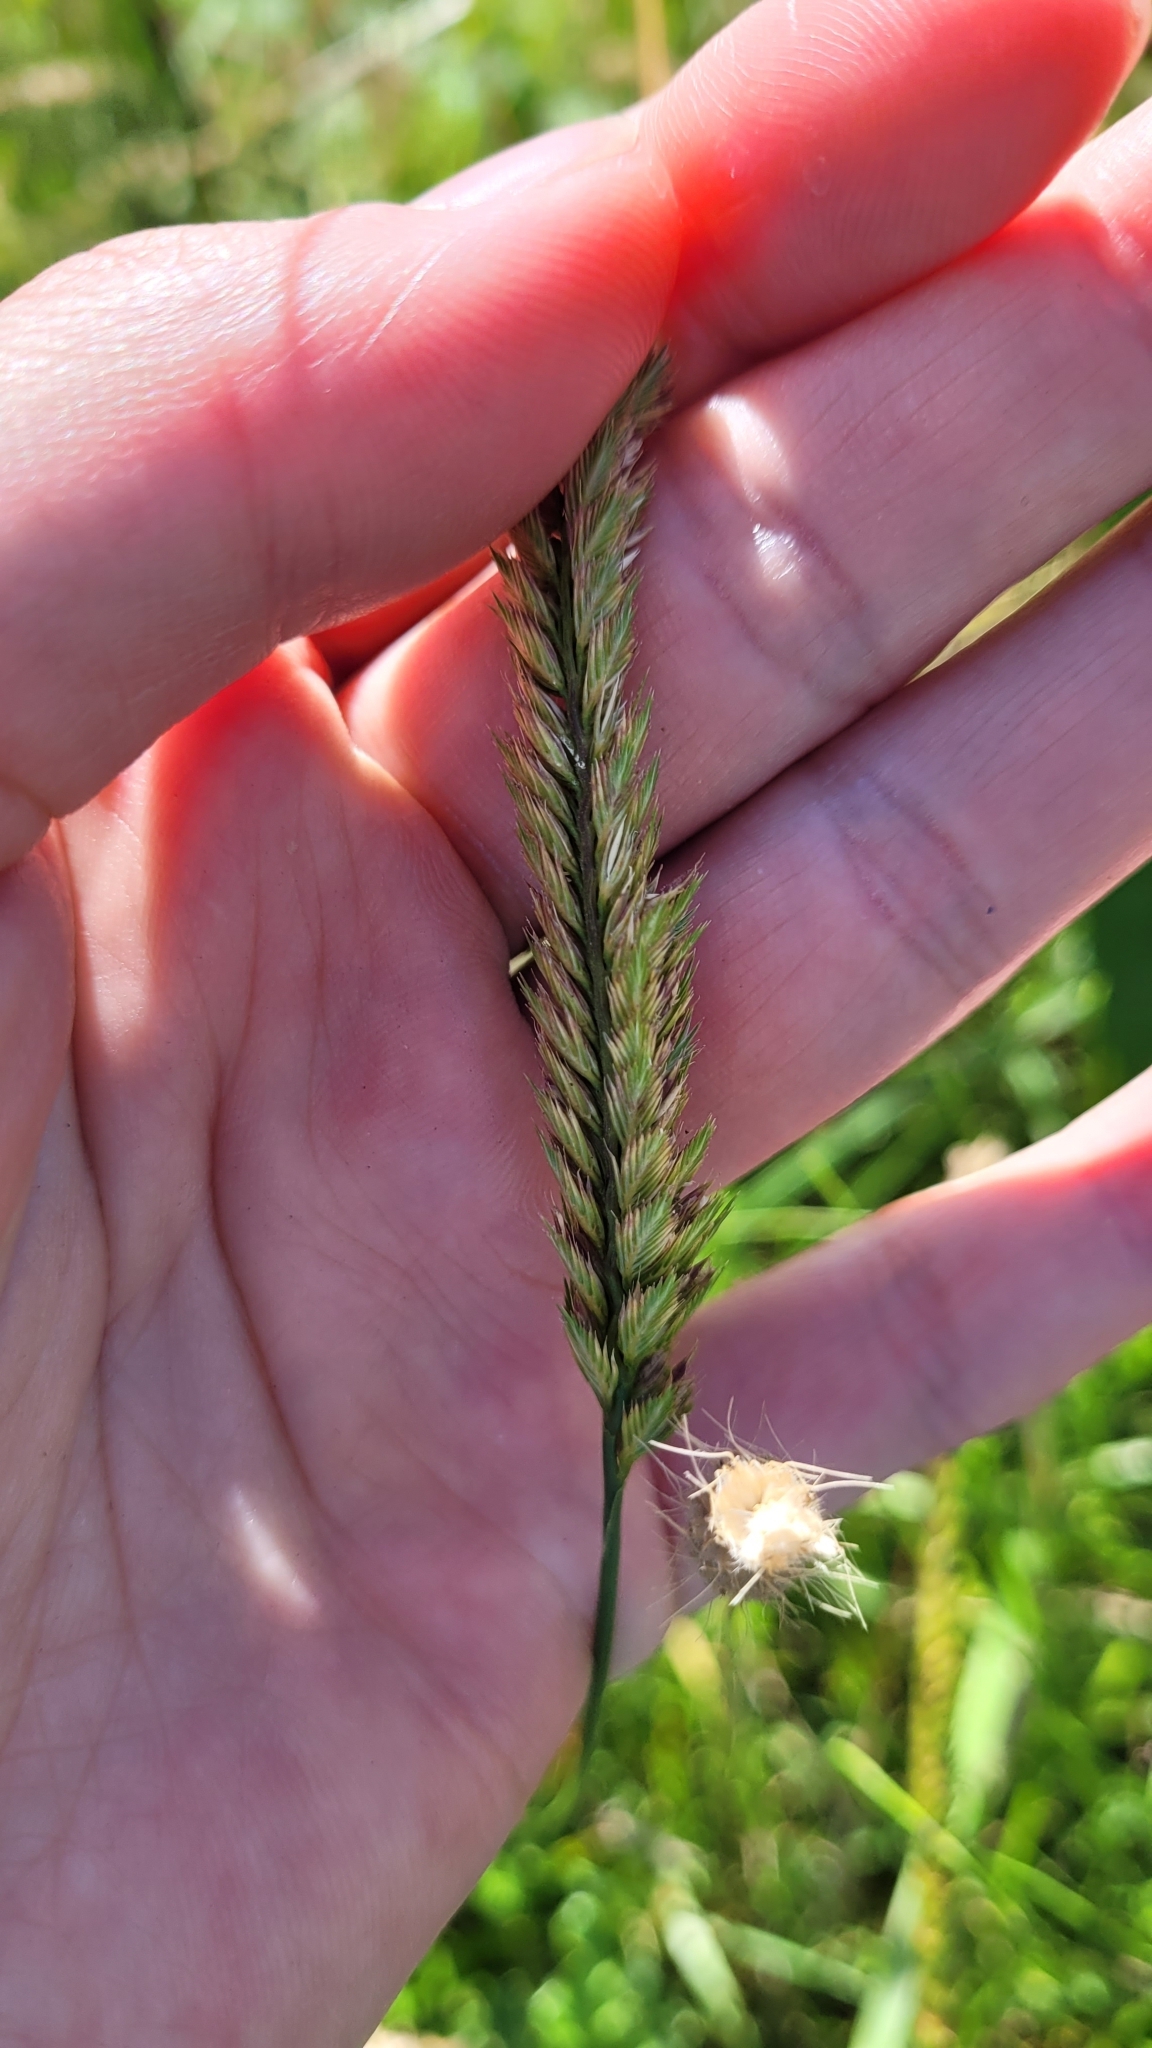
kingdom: Plantae
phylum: Tracheophyta
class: Liliopsida
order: Poales
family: Poaceae
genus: Cynosurus
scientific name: Cynosurus cristatus
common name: Crested dog's-tail
